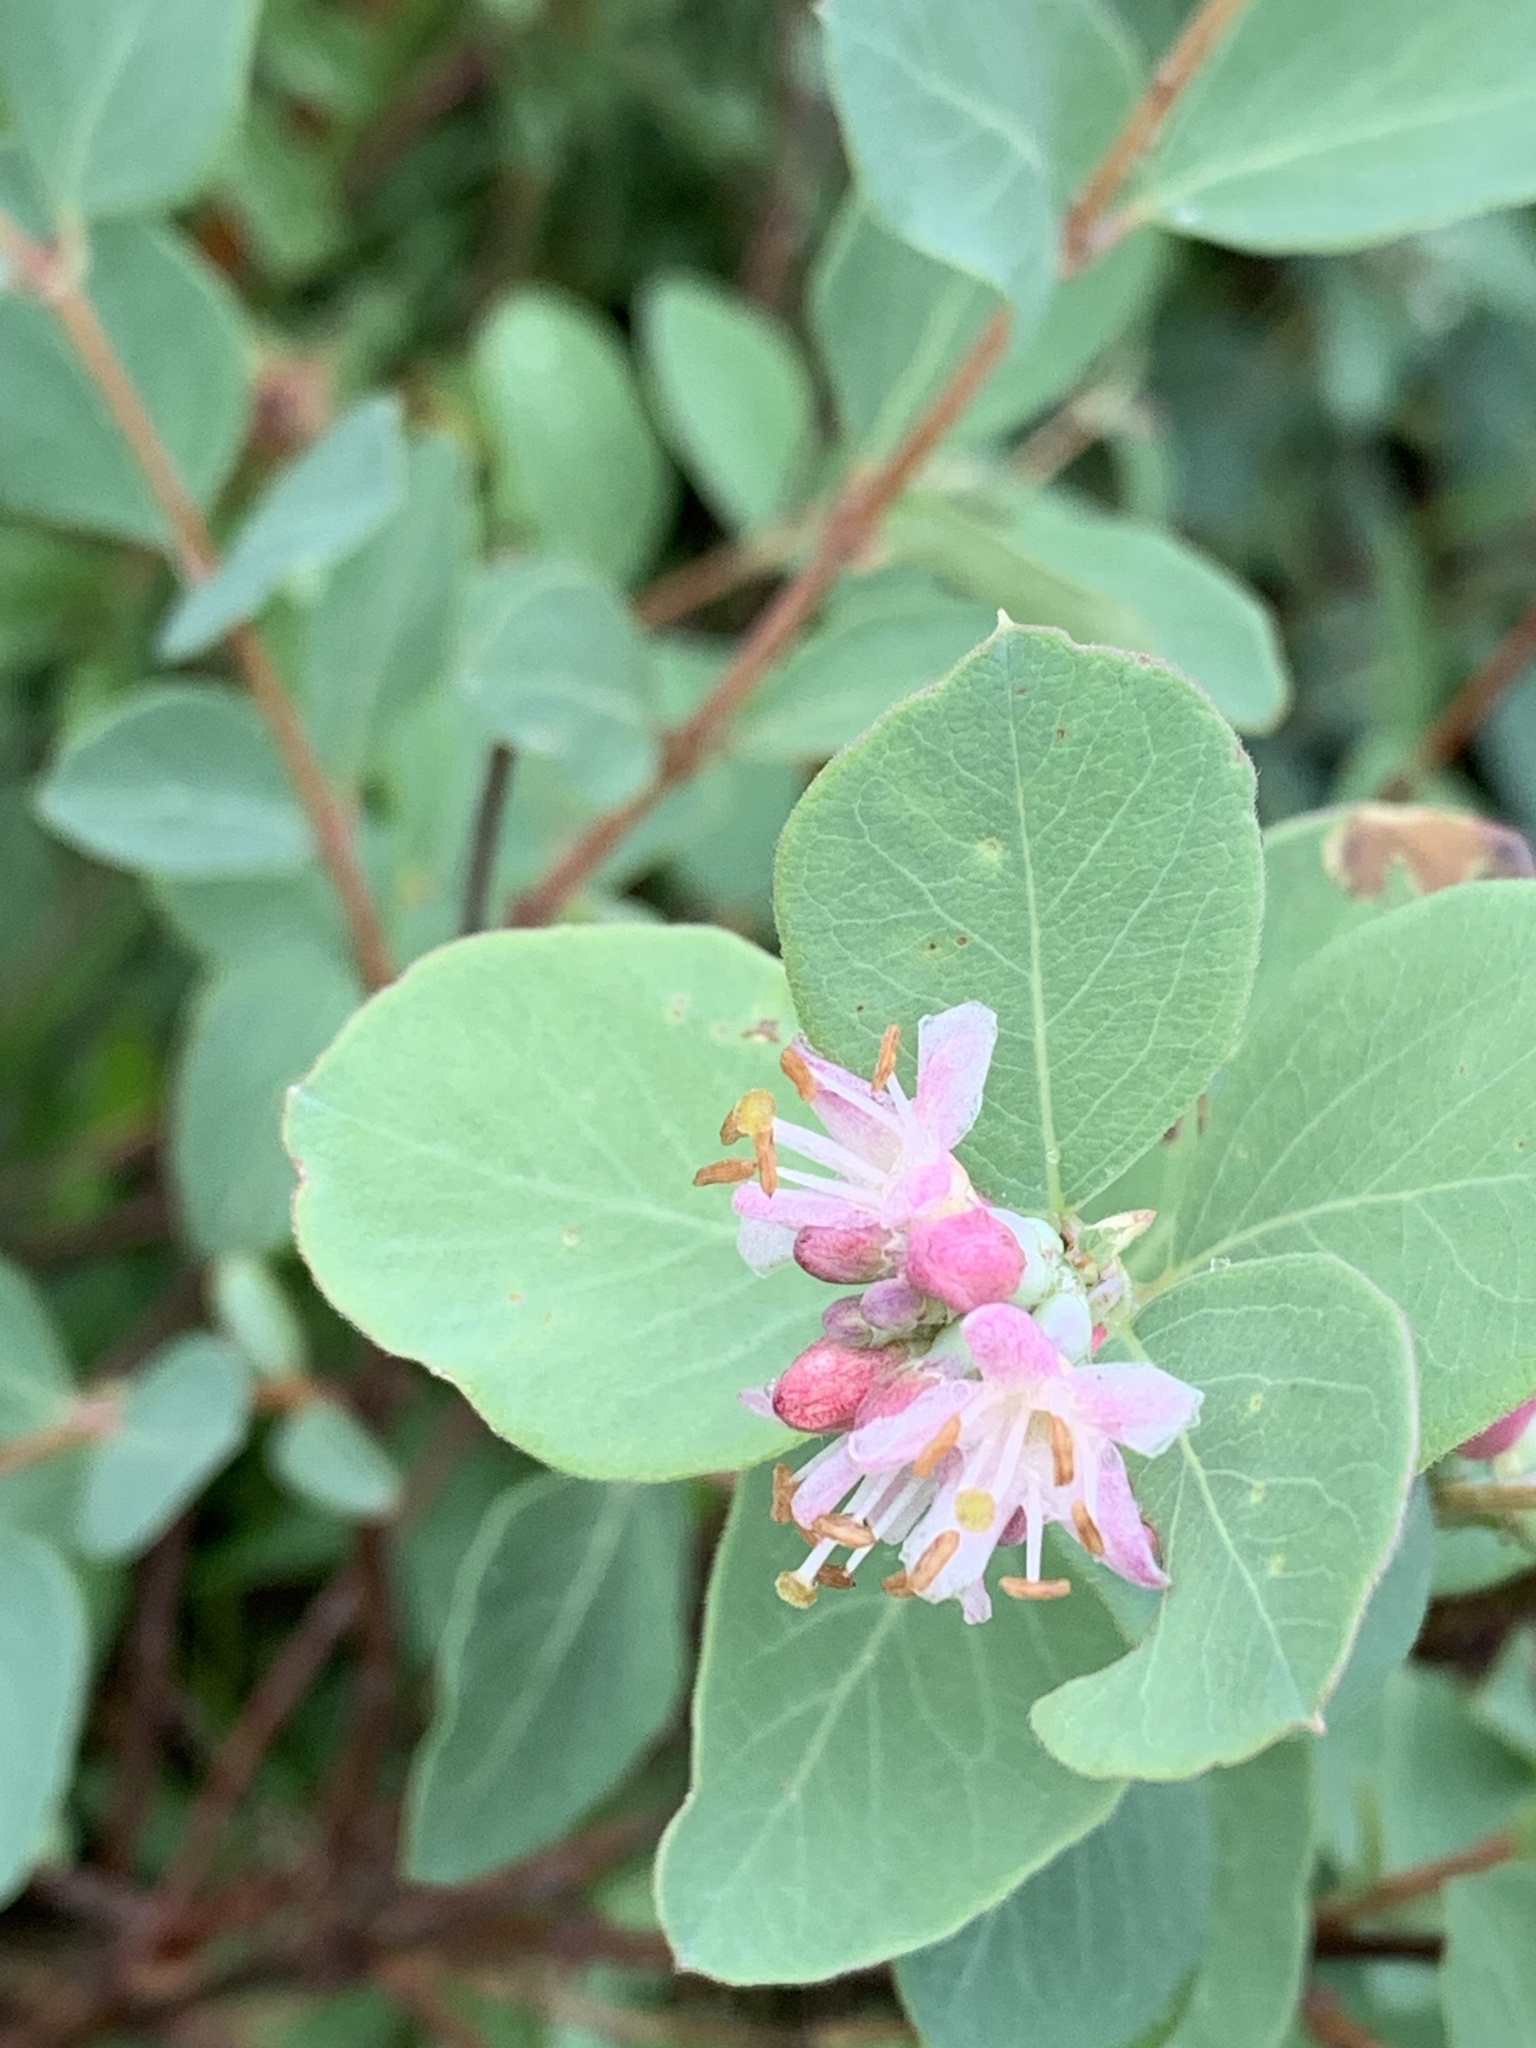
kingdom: Plantae
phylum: Tracheophyta
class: Magnoliopsida
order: Dipsacales
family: Caprifoliaceae
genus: Symphoricarpos
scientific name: Symphoricarpos occidentalis
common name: Wolfberry
